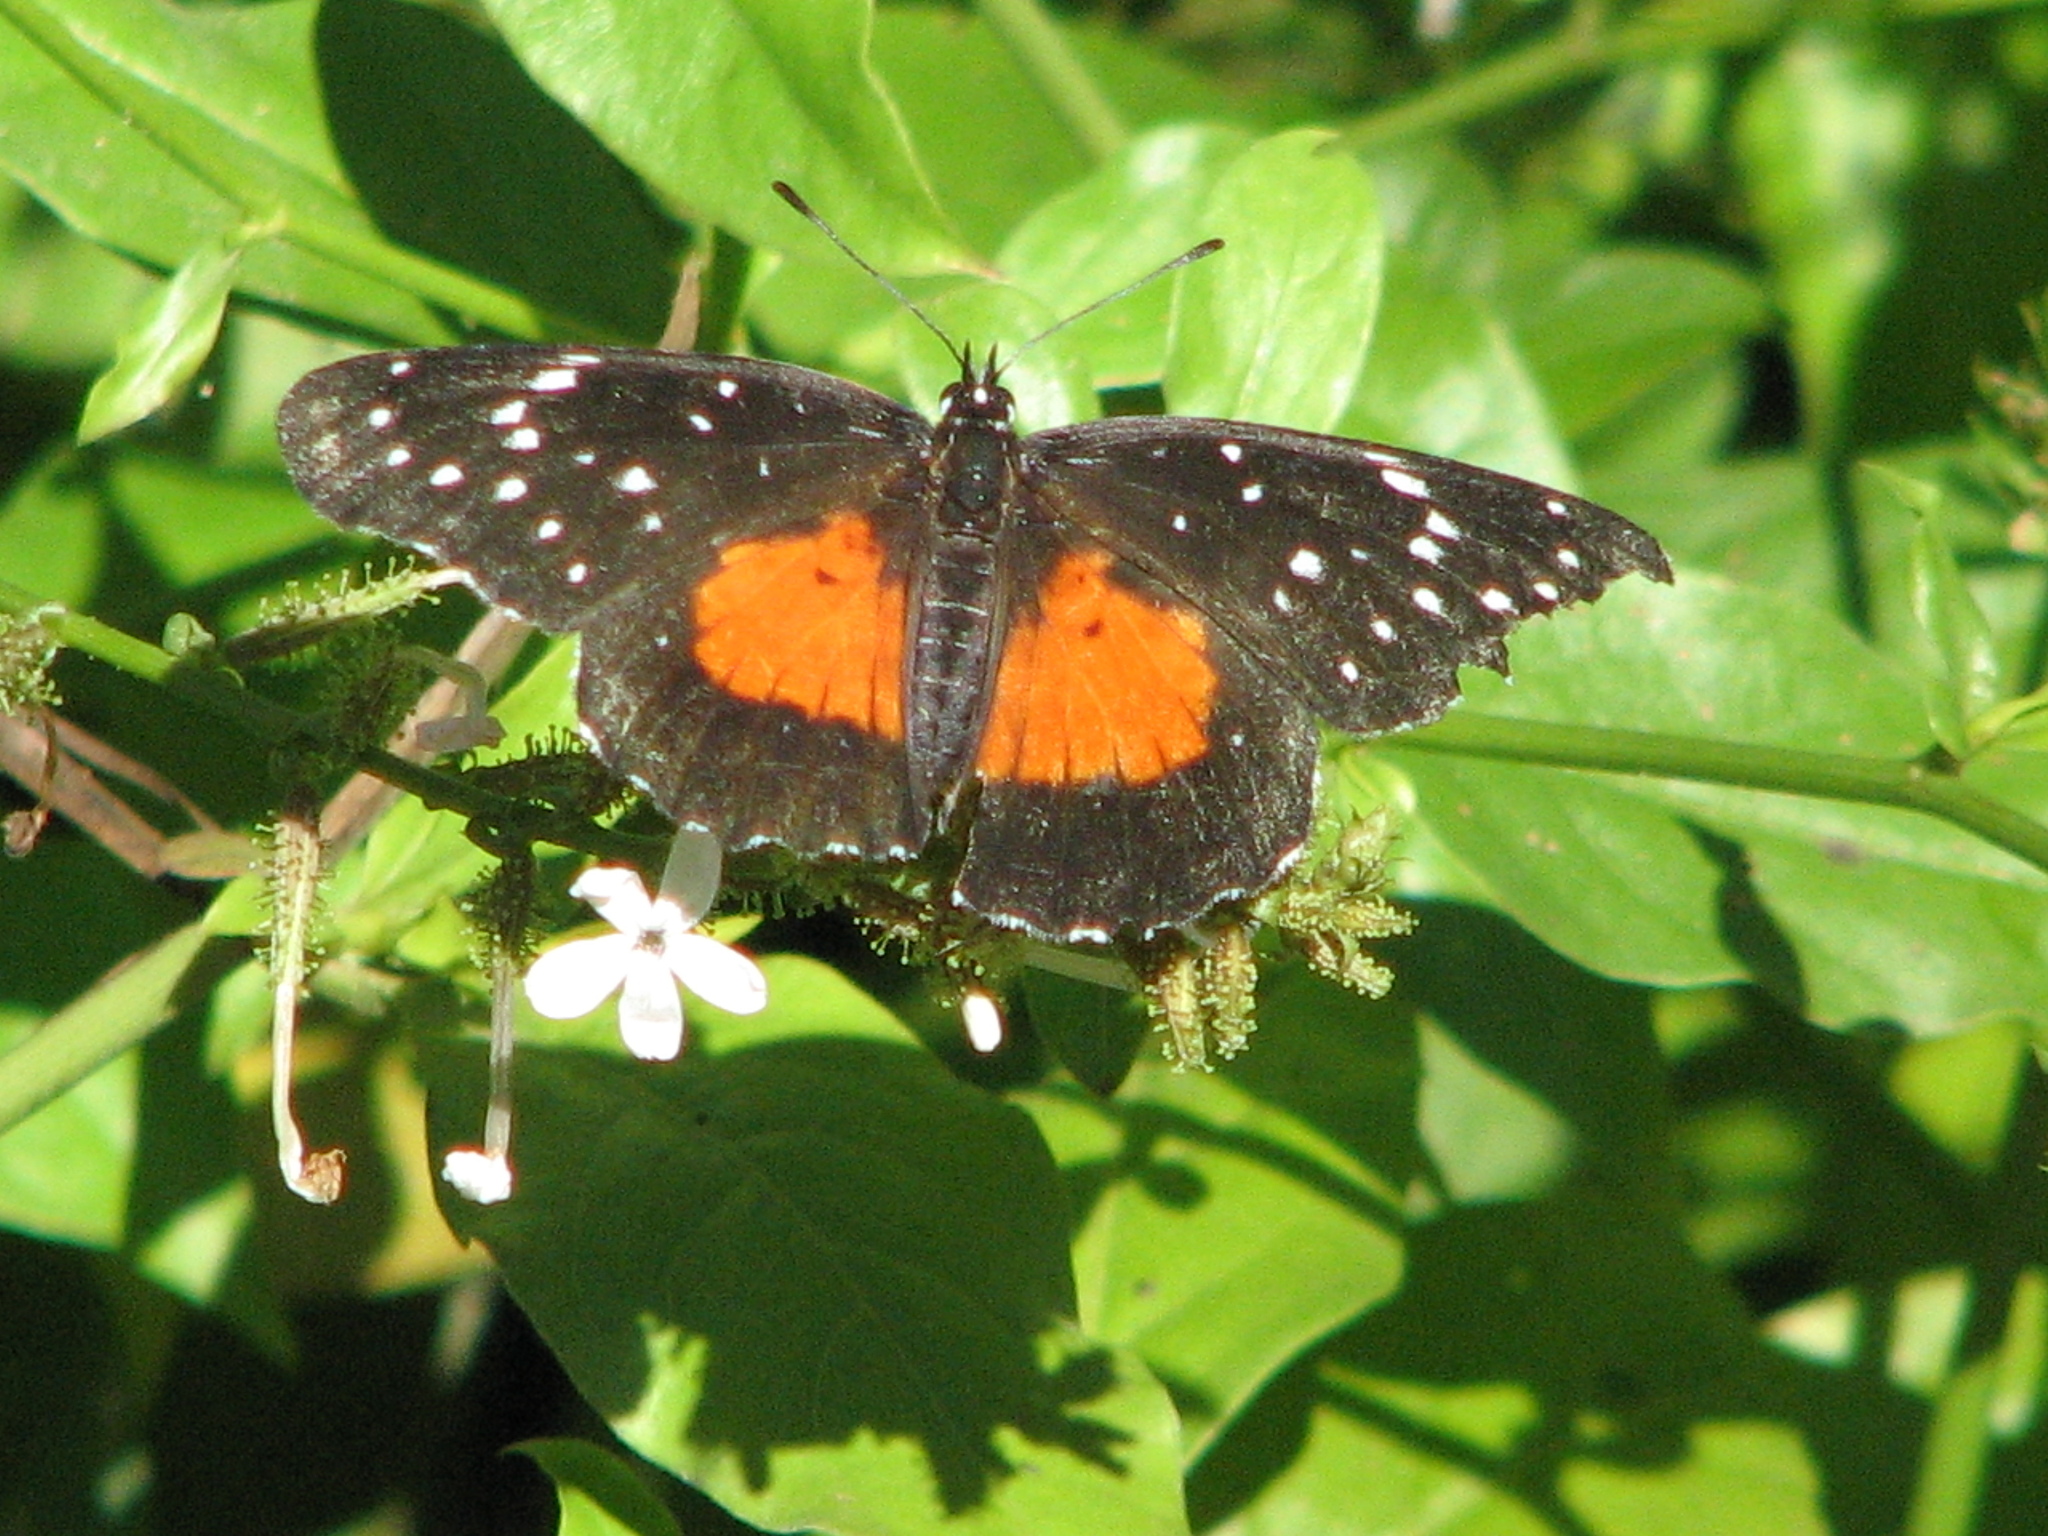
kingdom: Animalia
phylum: Arthropoda
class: Insecta
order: Lepidoptera
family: Nymphalidae
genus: Chlosyne
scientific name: Chlosyne janais
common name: Crimson patch
